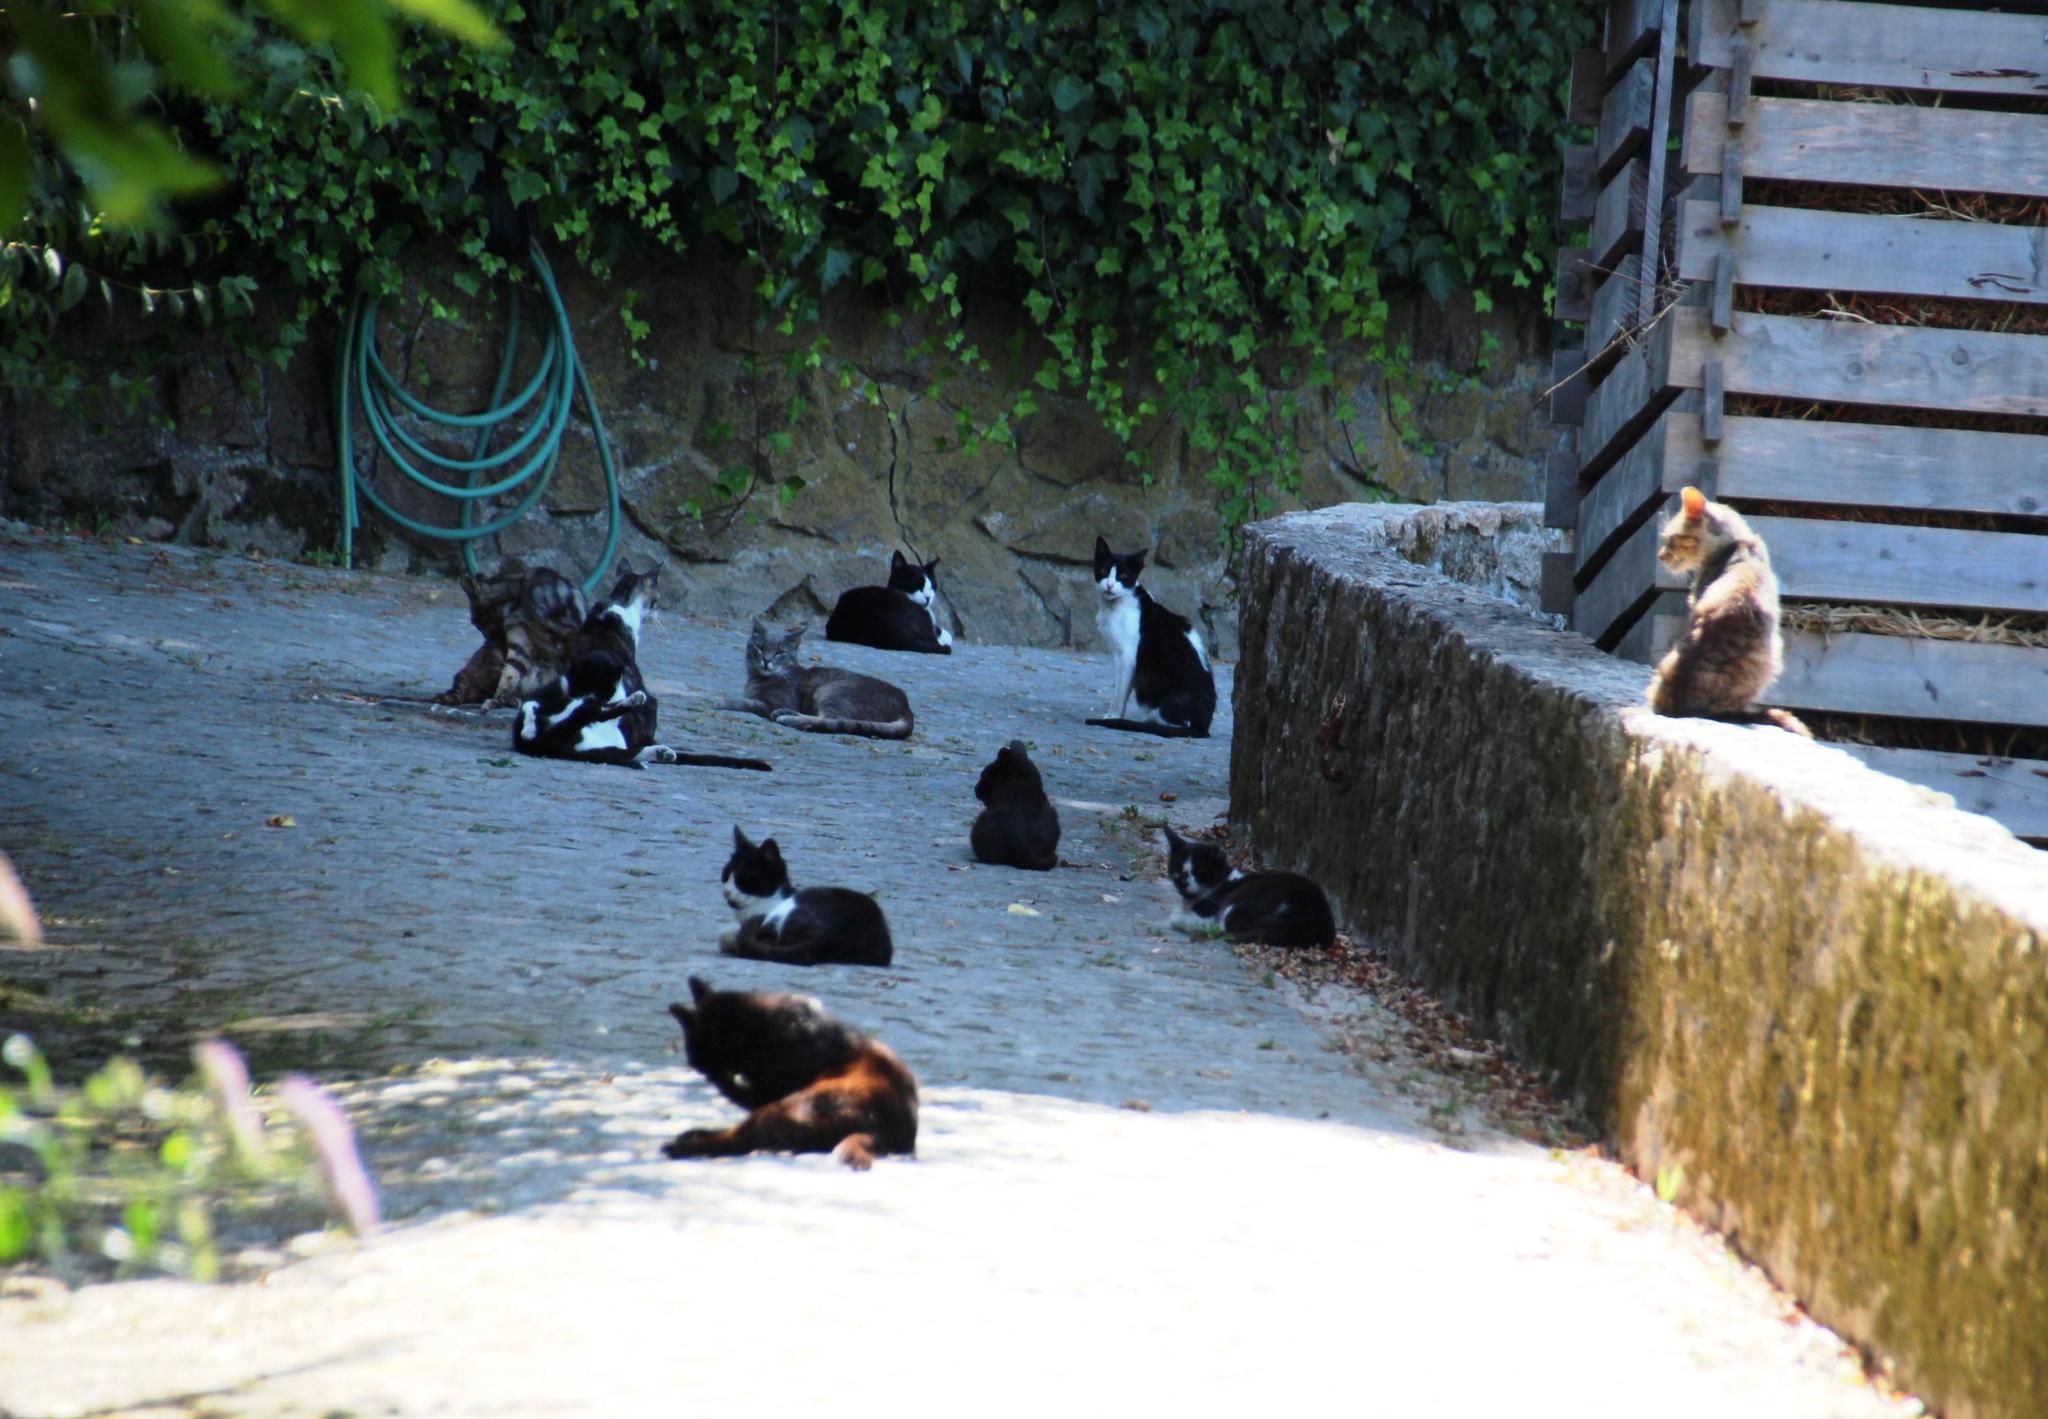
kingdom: Animalia
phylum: Chordata
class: Mammalia
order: Carnivora
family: Felidae
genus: Felis
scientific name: Felis catus
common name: Domestic cat
